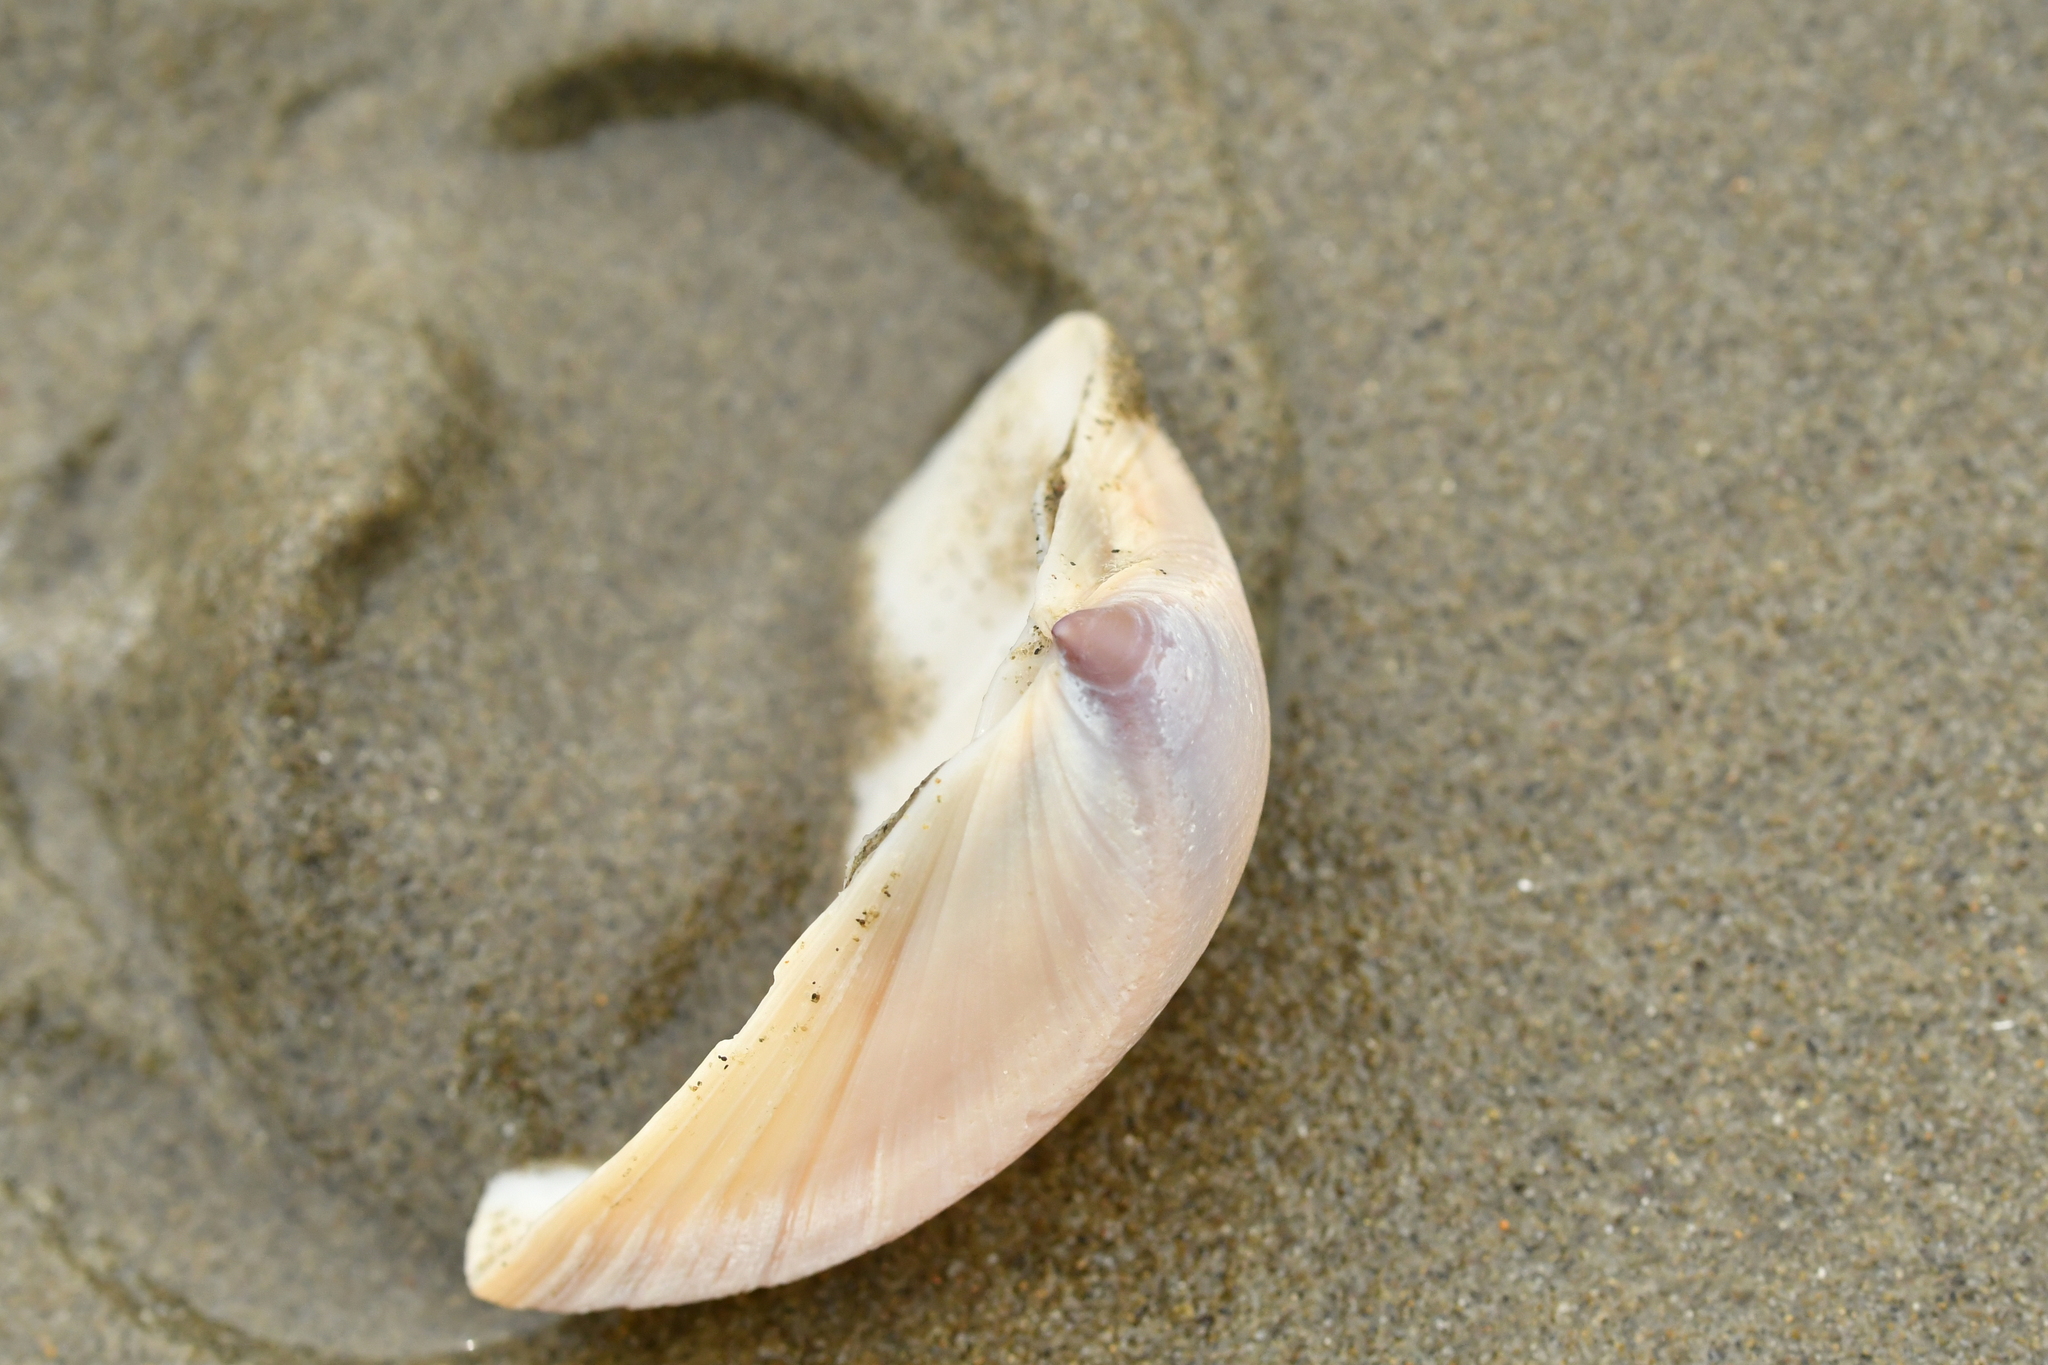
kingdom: Animalia
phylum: Mollusca
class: Bivalvia
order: Venerida
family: Mactridae
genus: Crassula
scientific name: Crassula aequilatera
